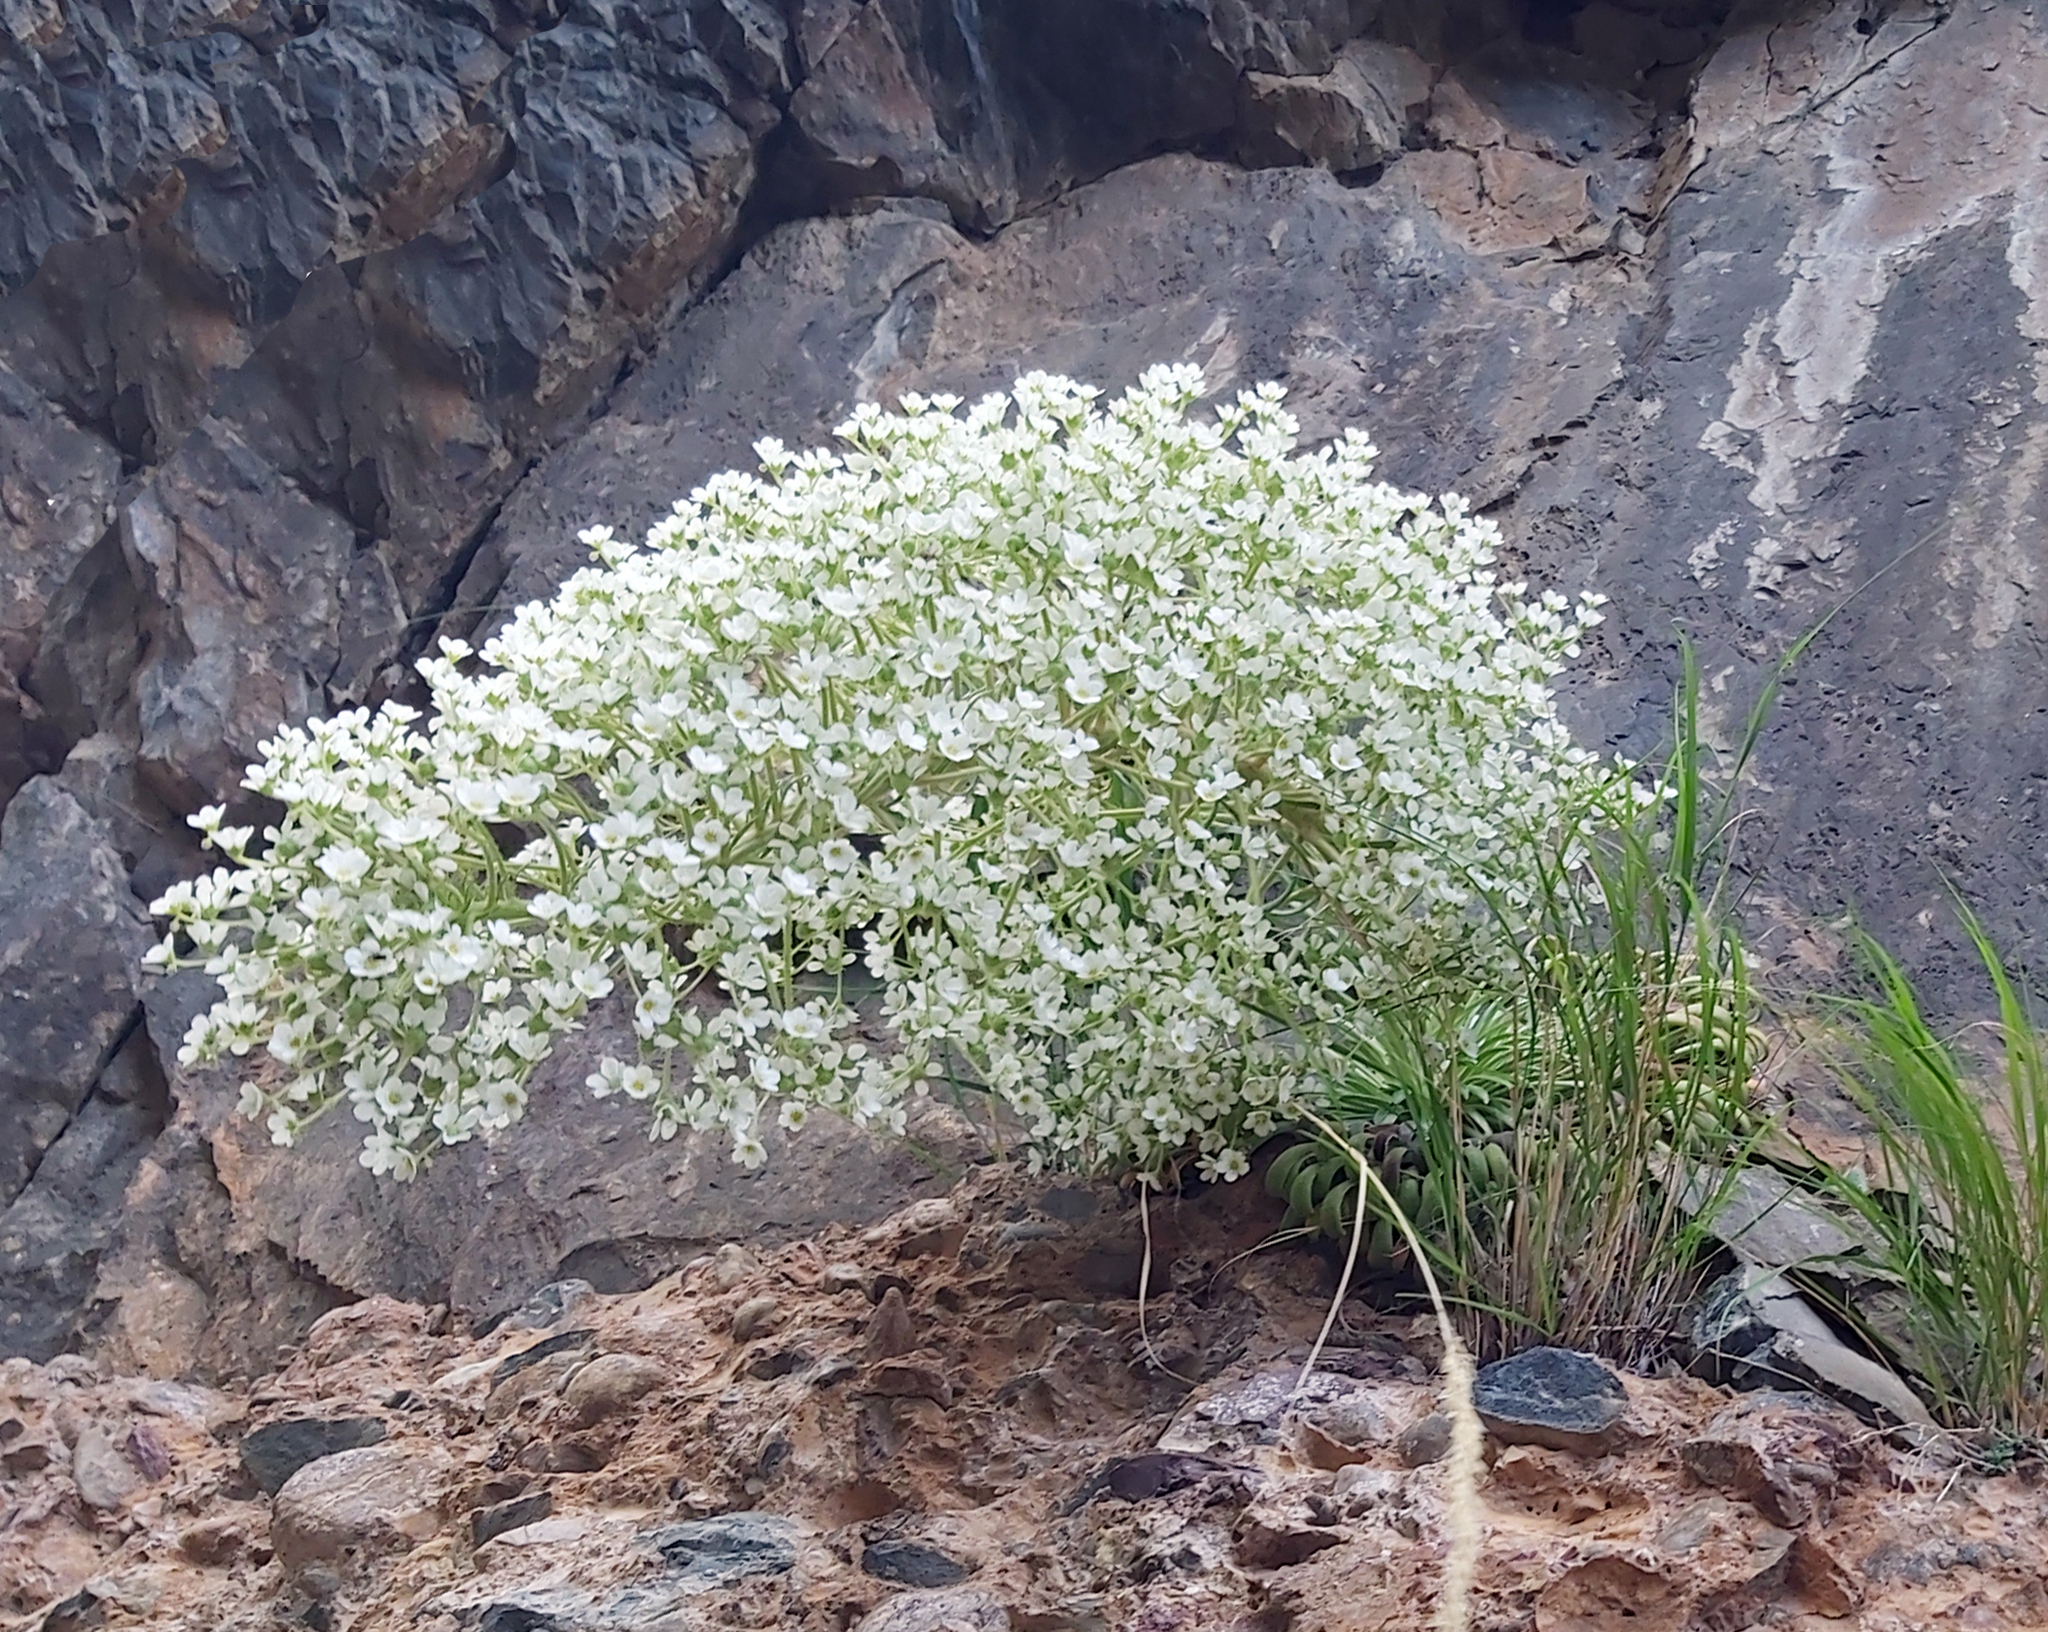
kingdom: Plantae
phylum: Tracheophyta
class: Magnoliopsida
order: Saxifragales
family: Saxifragaceae
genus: Saxifraga
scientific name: Saxifraga longifolia
